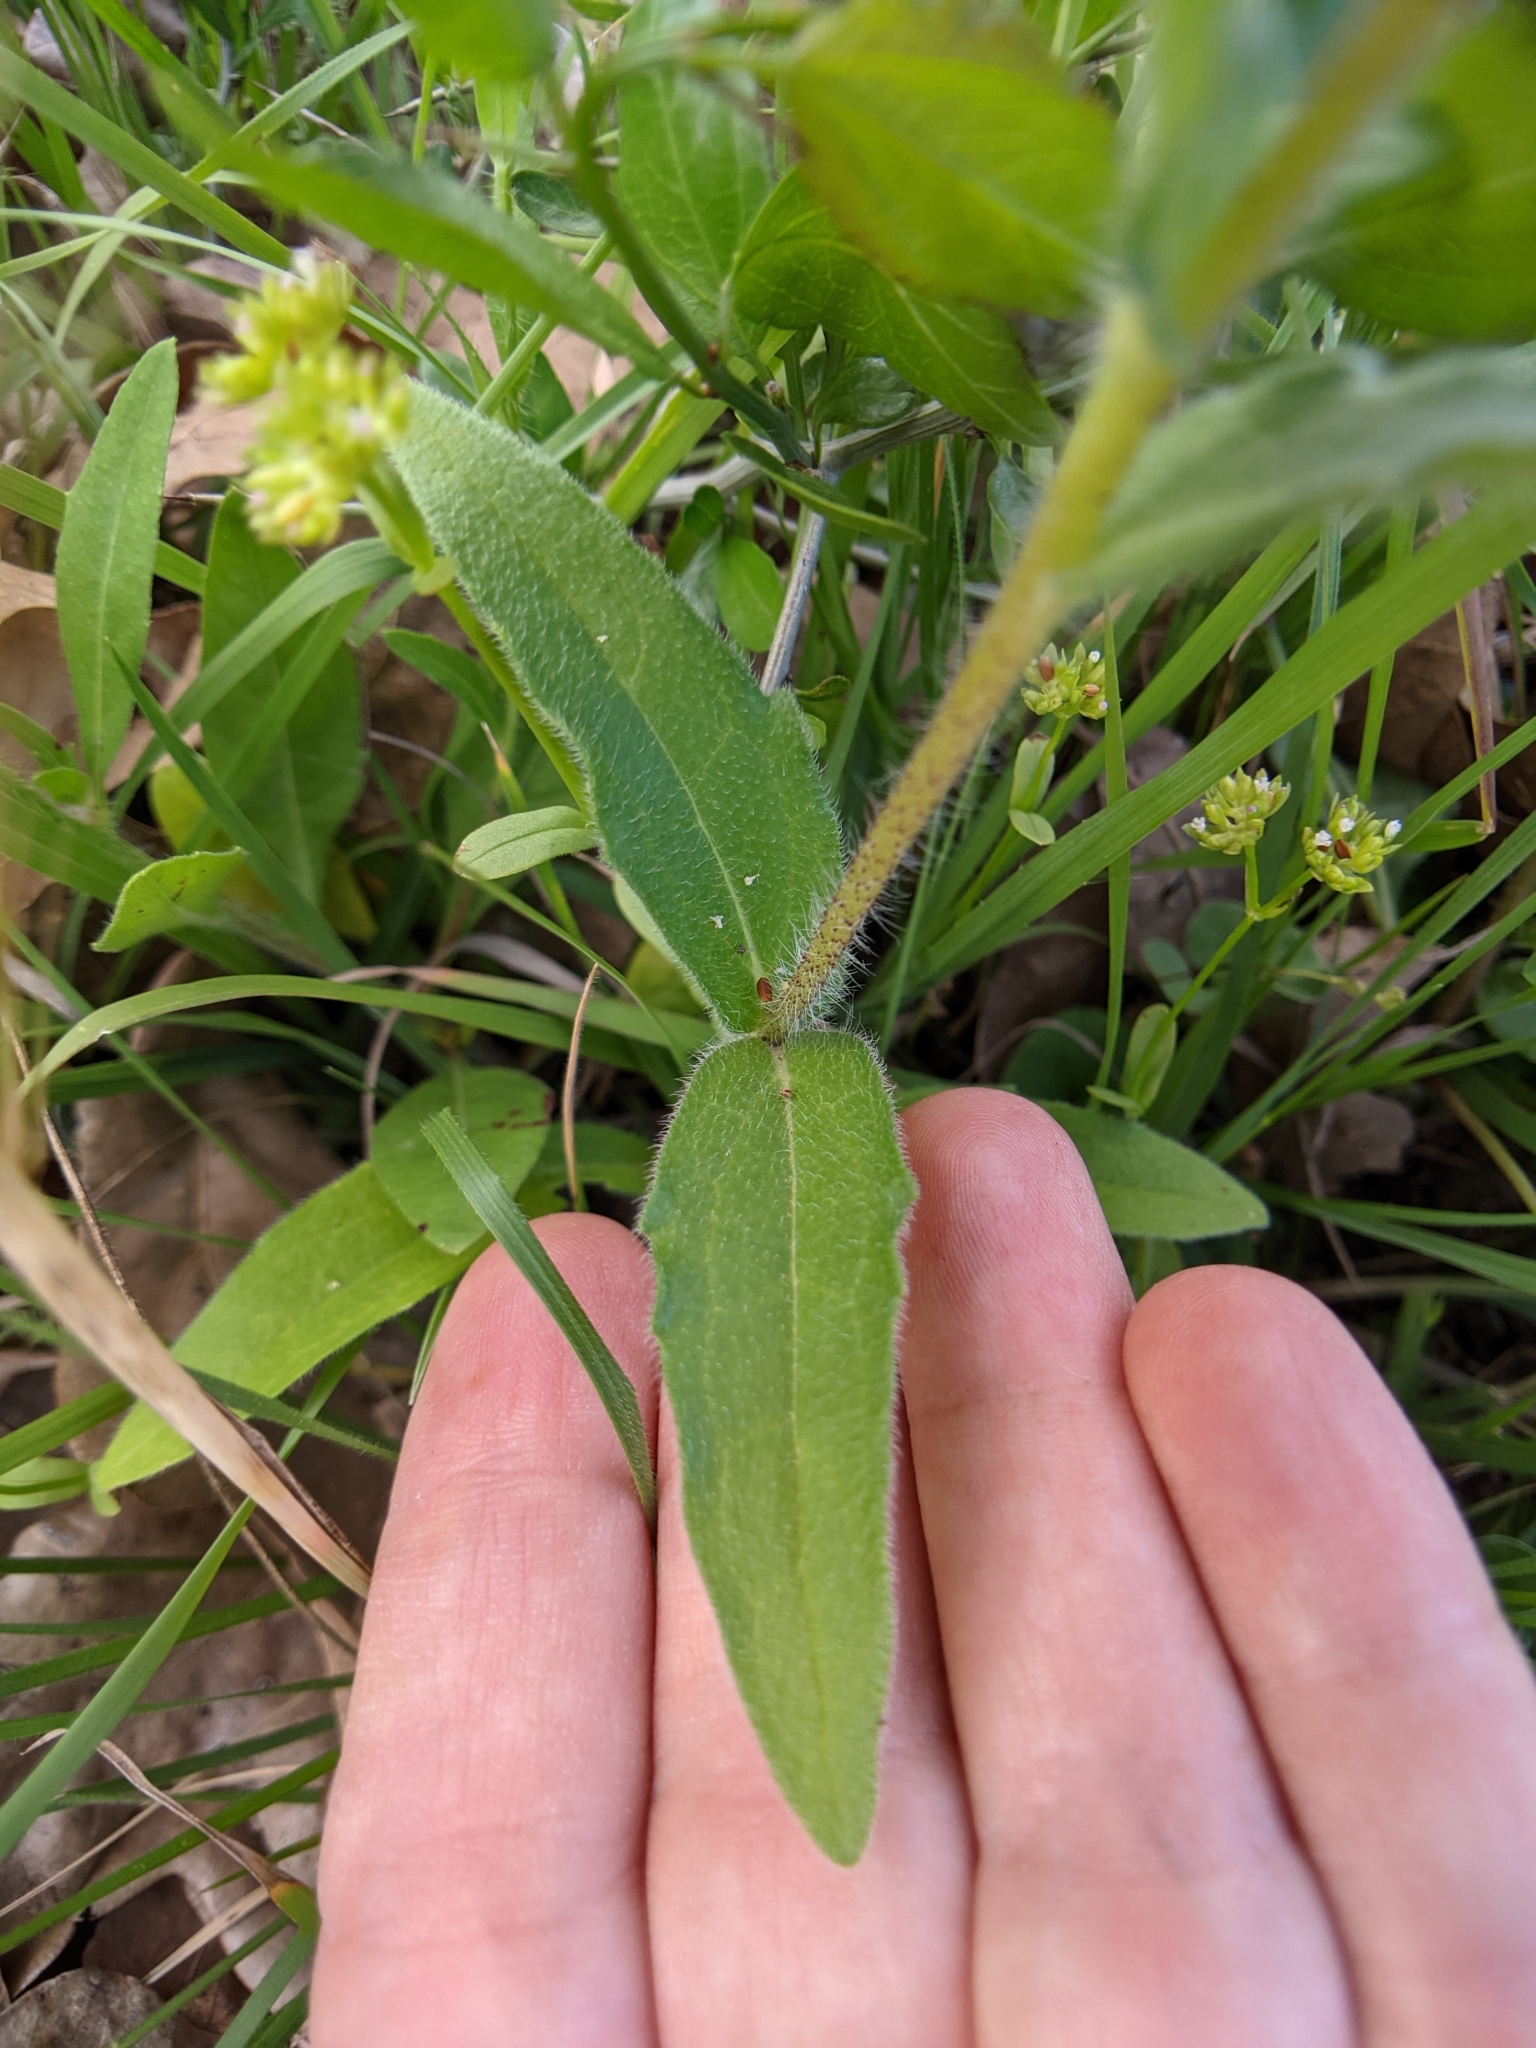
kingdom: Plantae
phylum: Tracheophyta
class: Magnoliopsida
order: Asterales
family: Asteraceae
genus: Lindheimera
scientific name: Lindheimera texana
